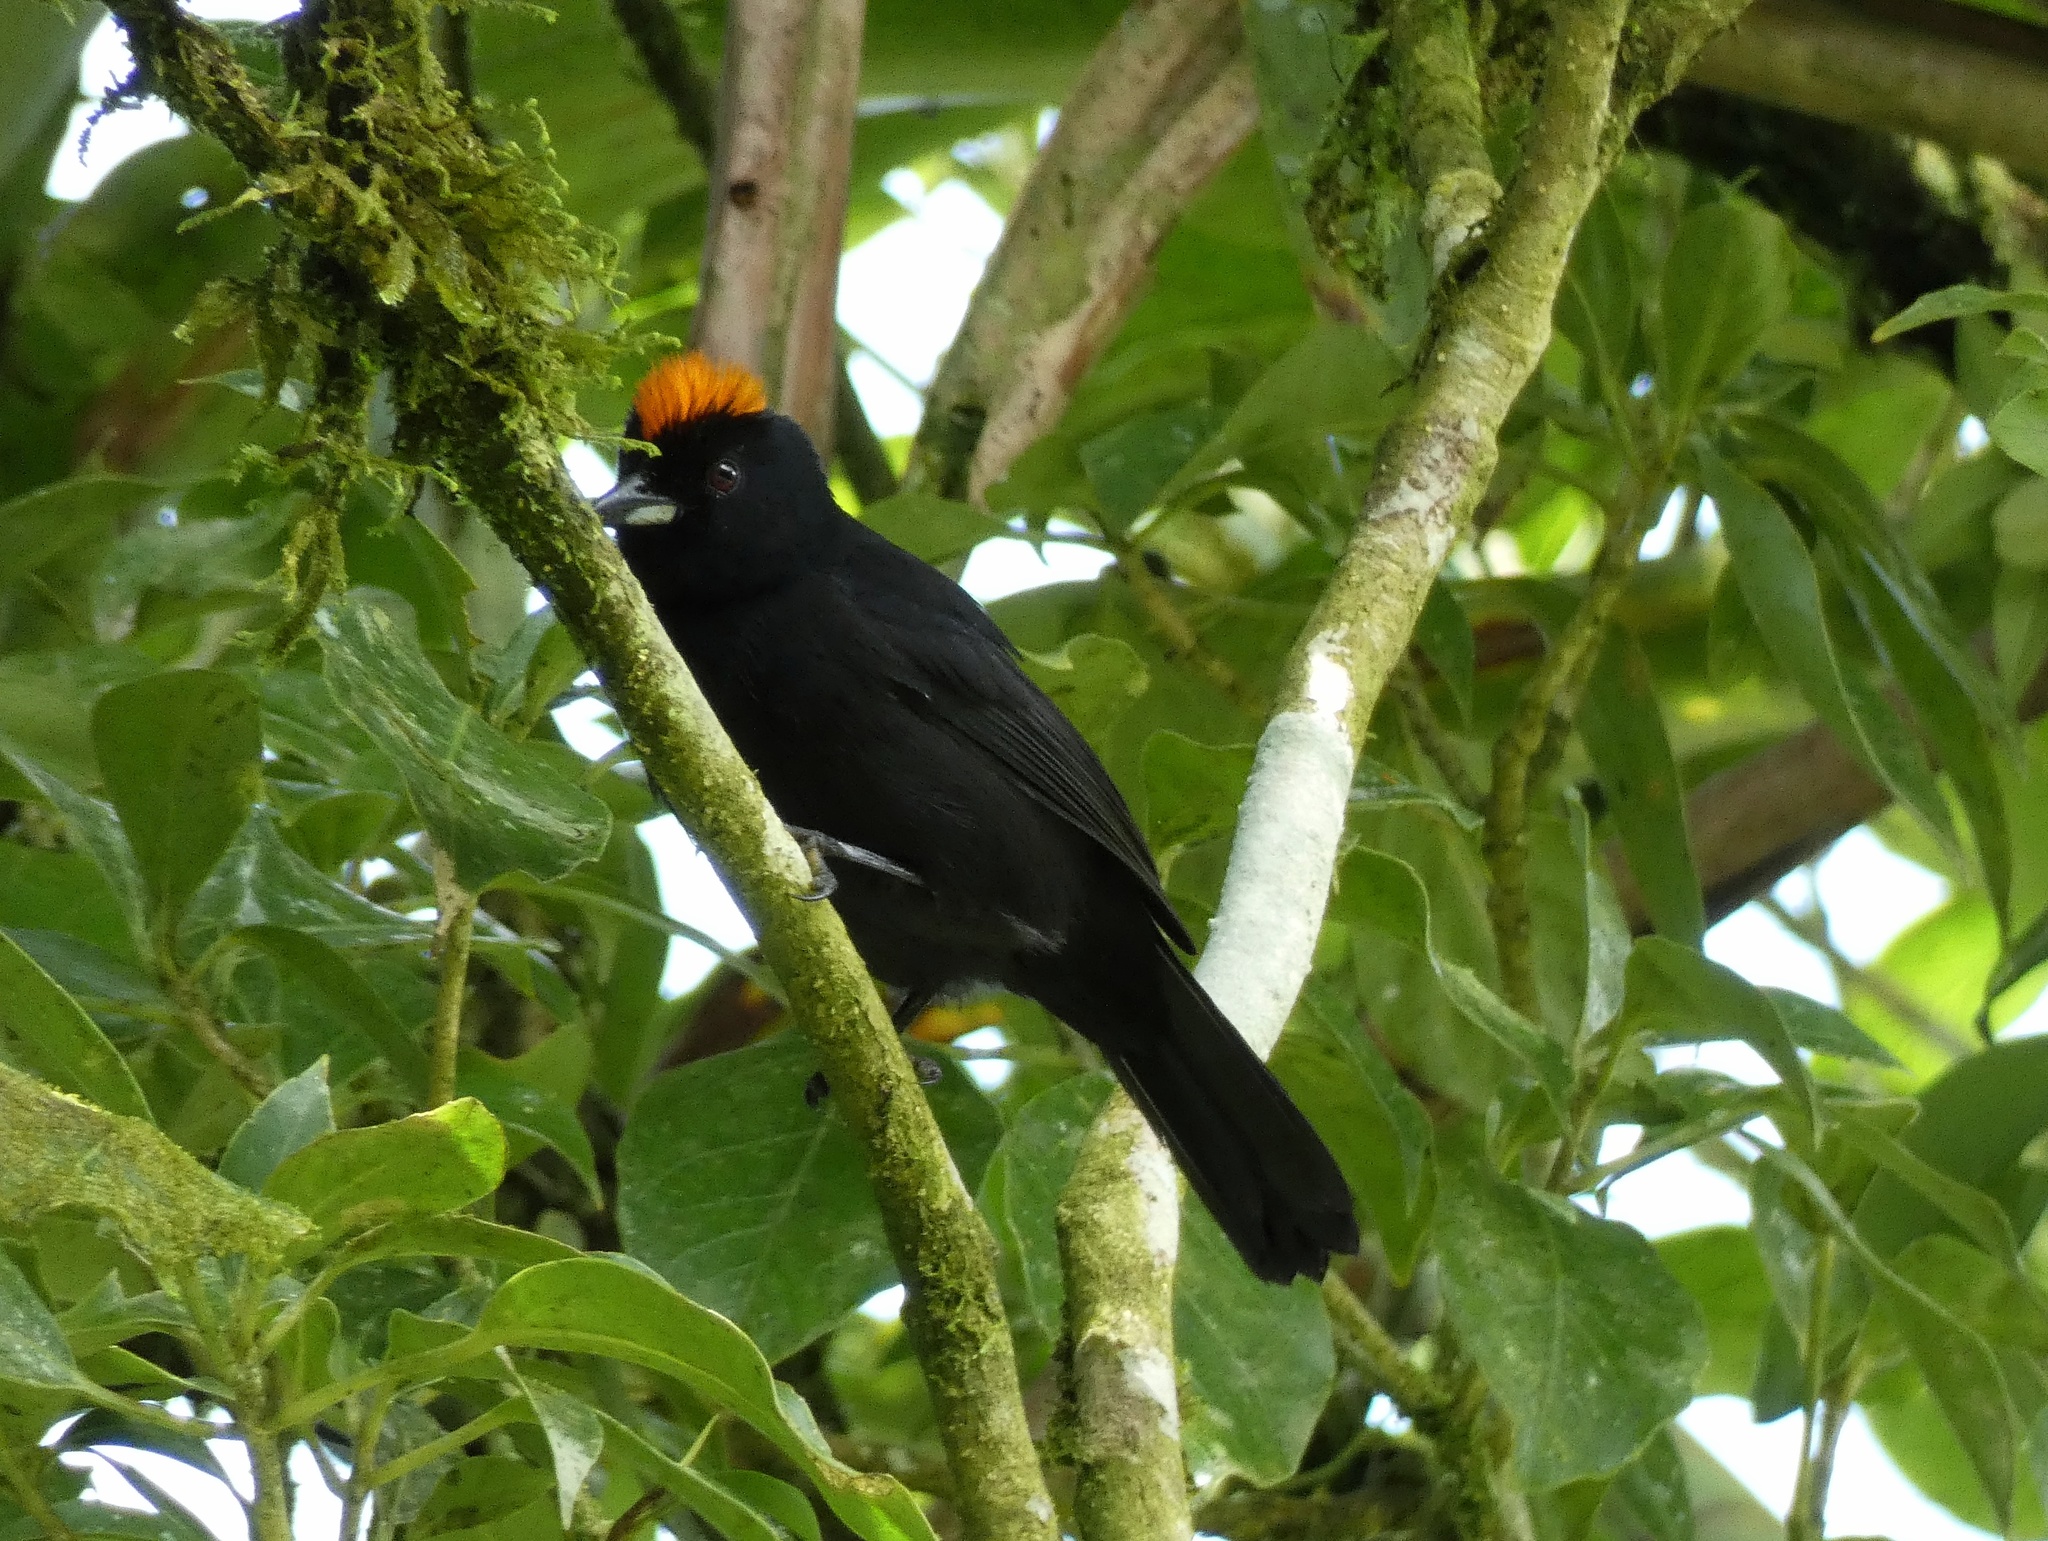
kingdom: Animalia
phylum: Chordata
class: Aves
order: Passeriformes
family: Thraupidae
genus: Tachyphonus
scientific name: Tachyphonus delatrii
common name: Tawny-crested tanager
